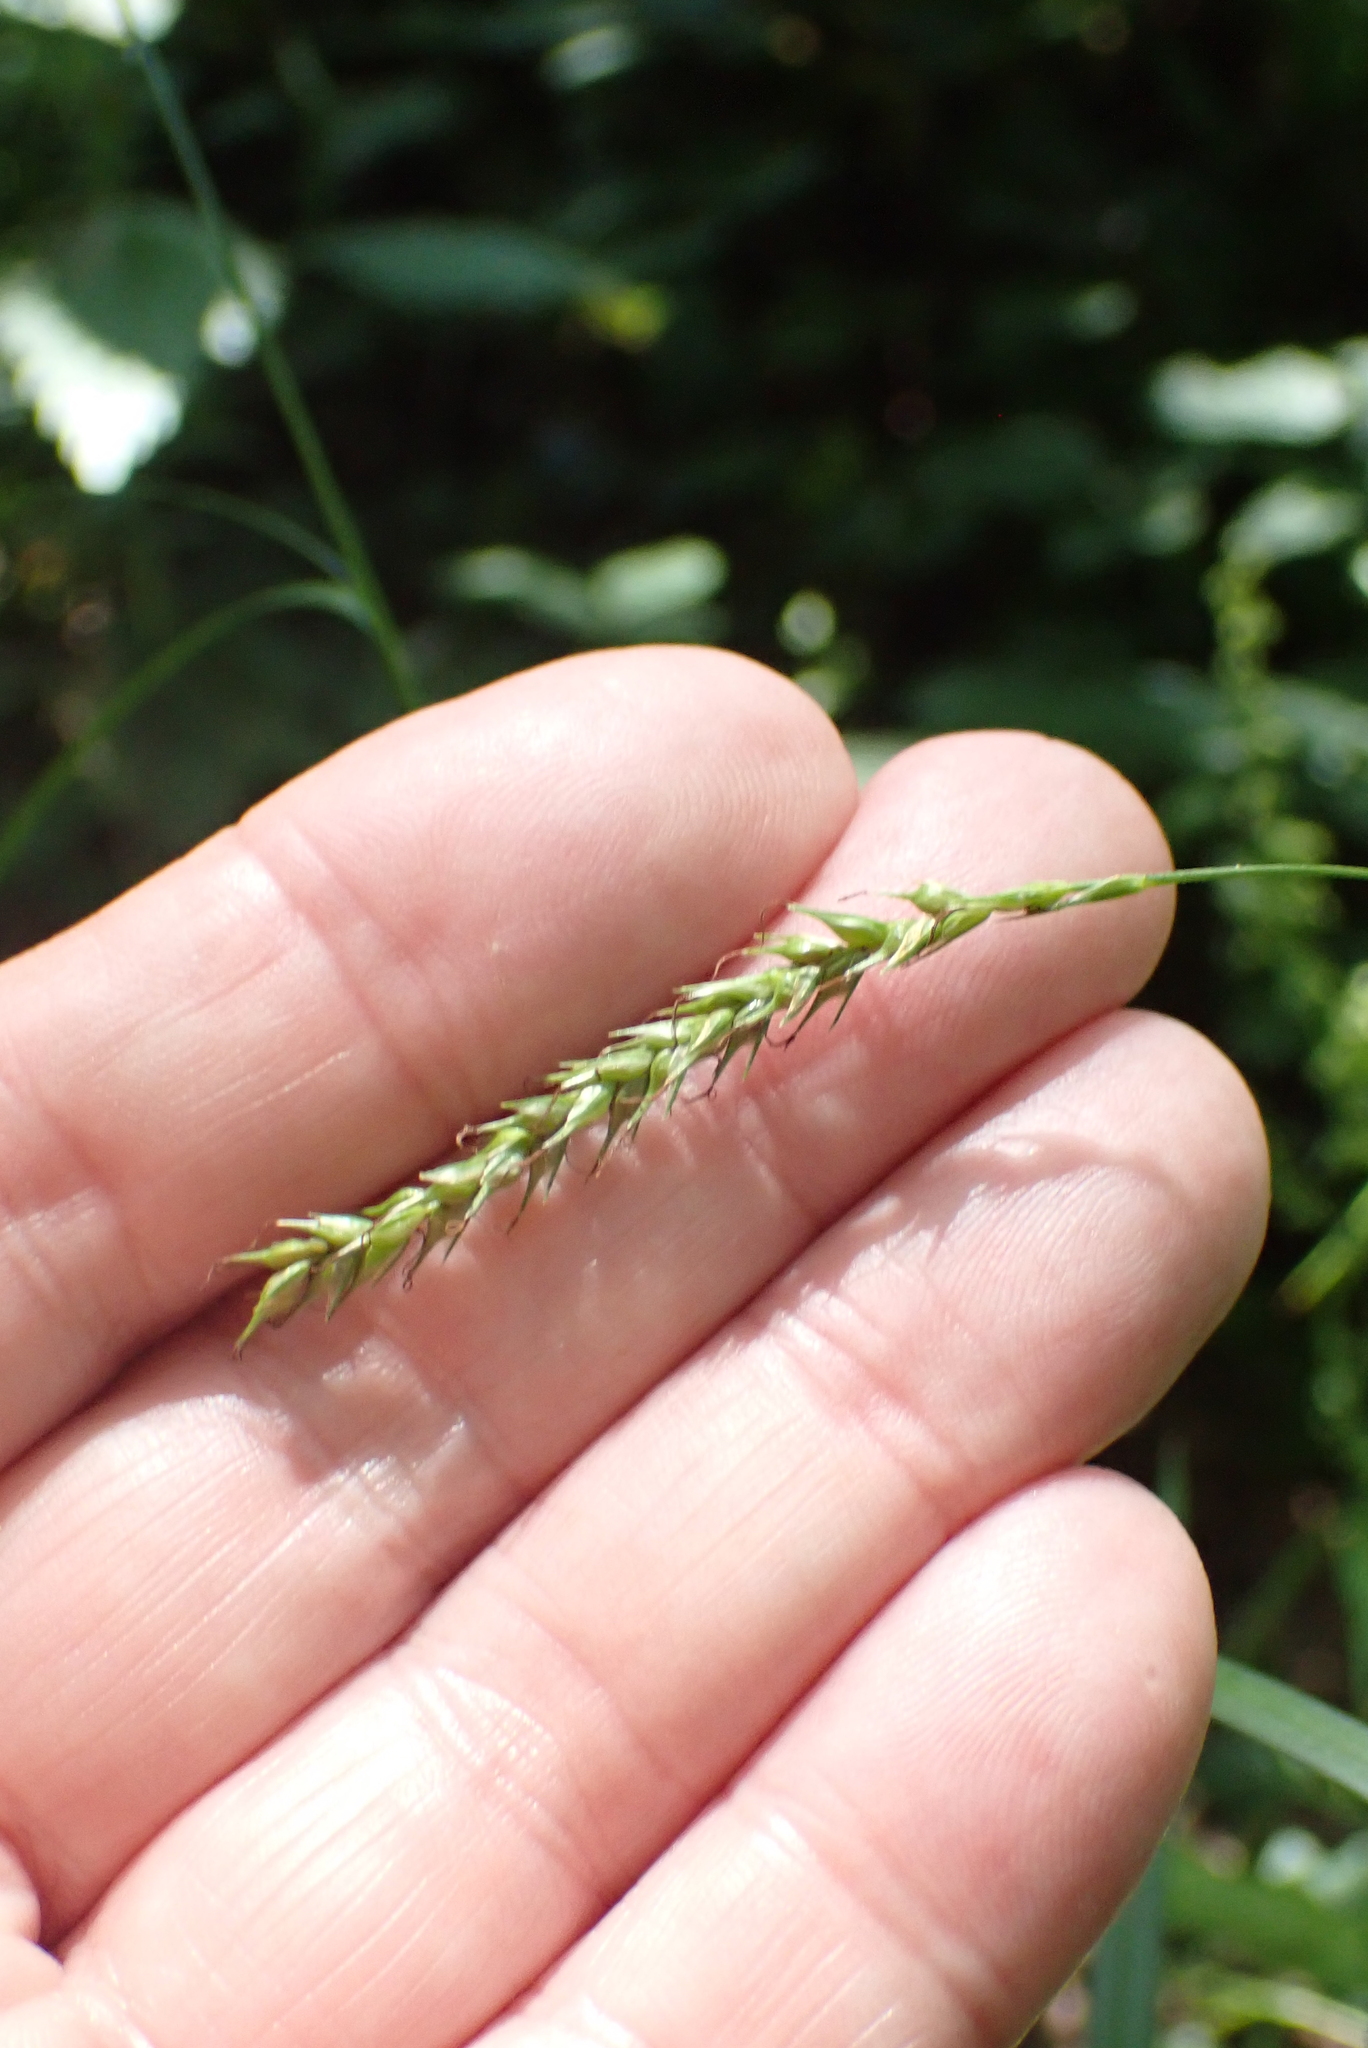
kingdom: Plantae
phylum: Tracheophyta
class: Liliopsida
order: Poales
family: Cyperaceae
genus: Carex
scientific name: Carex sylvatica
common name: Wood-sedge
